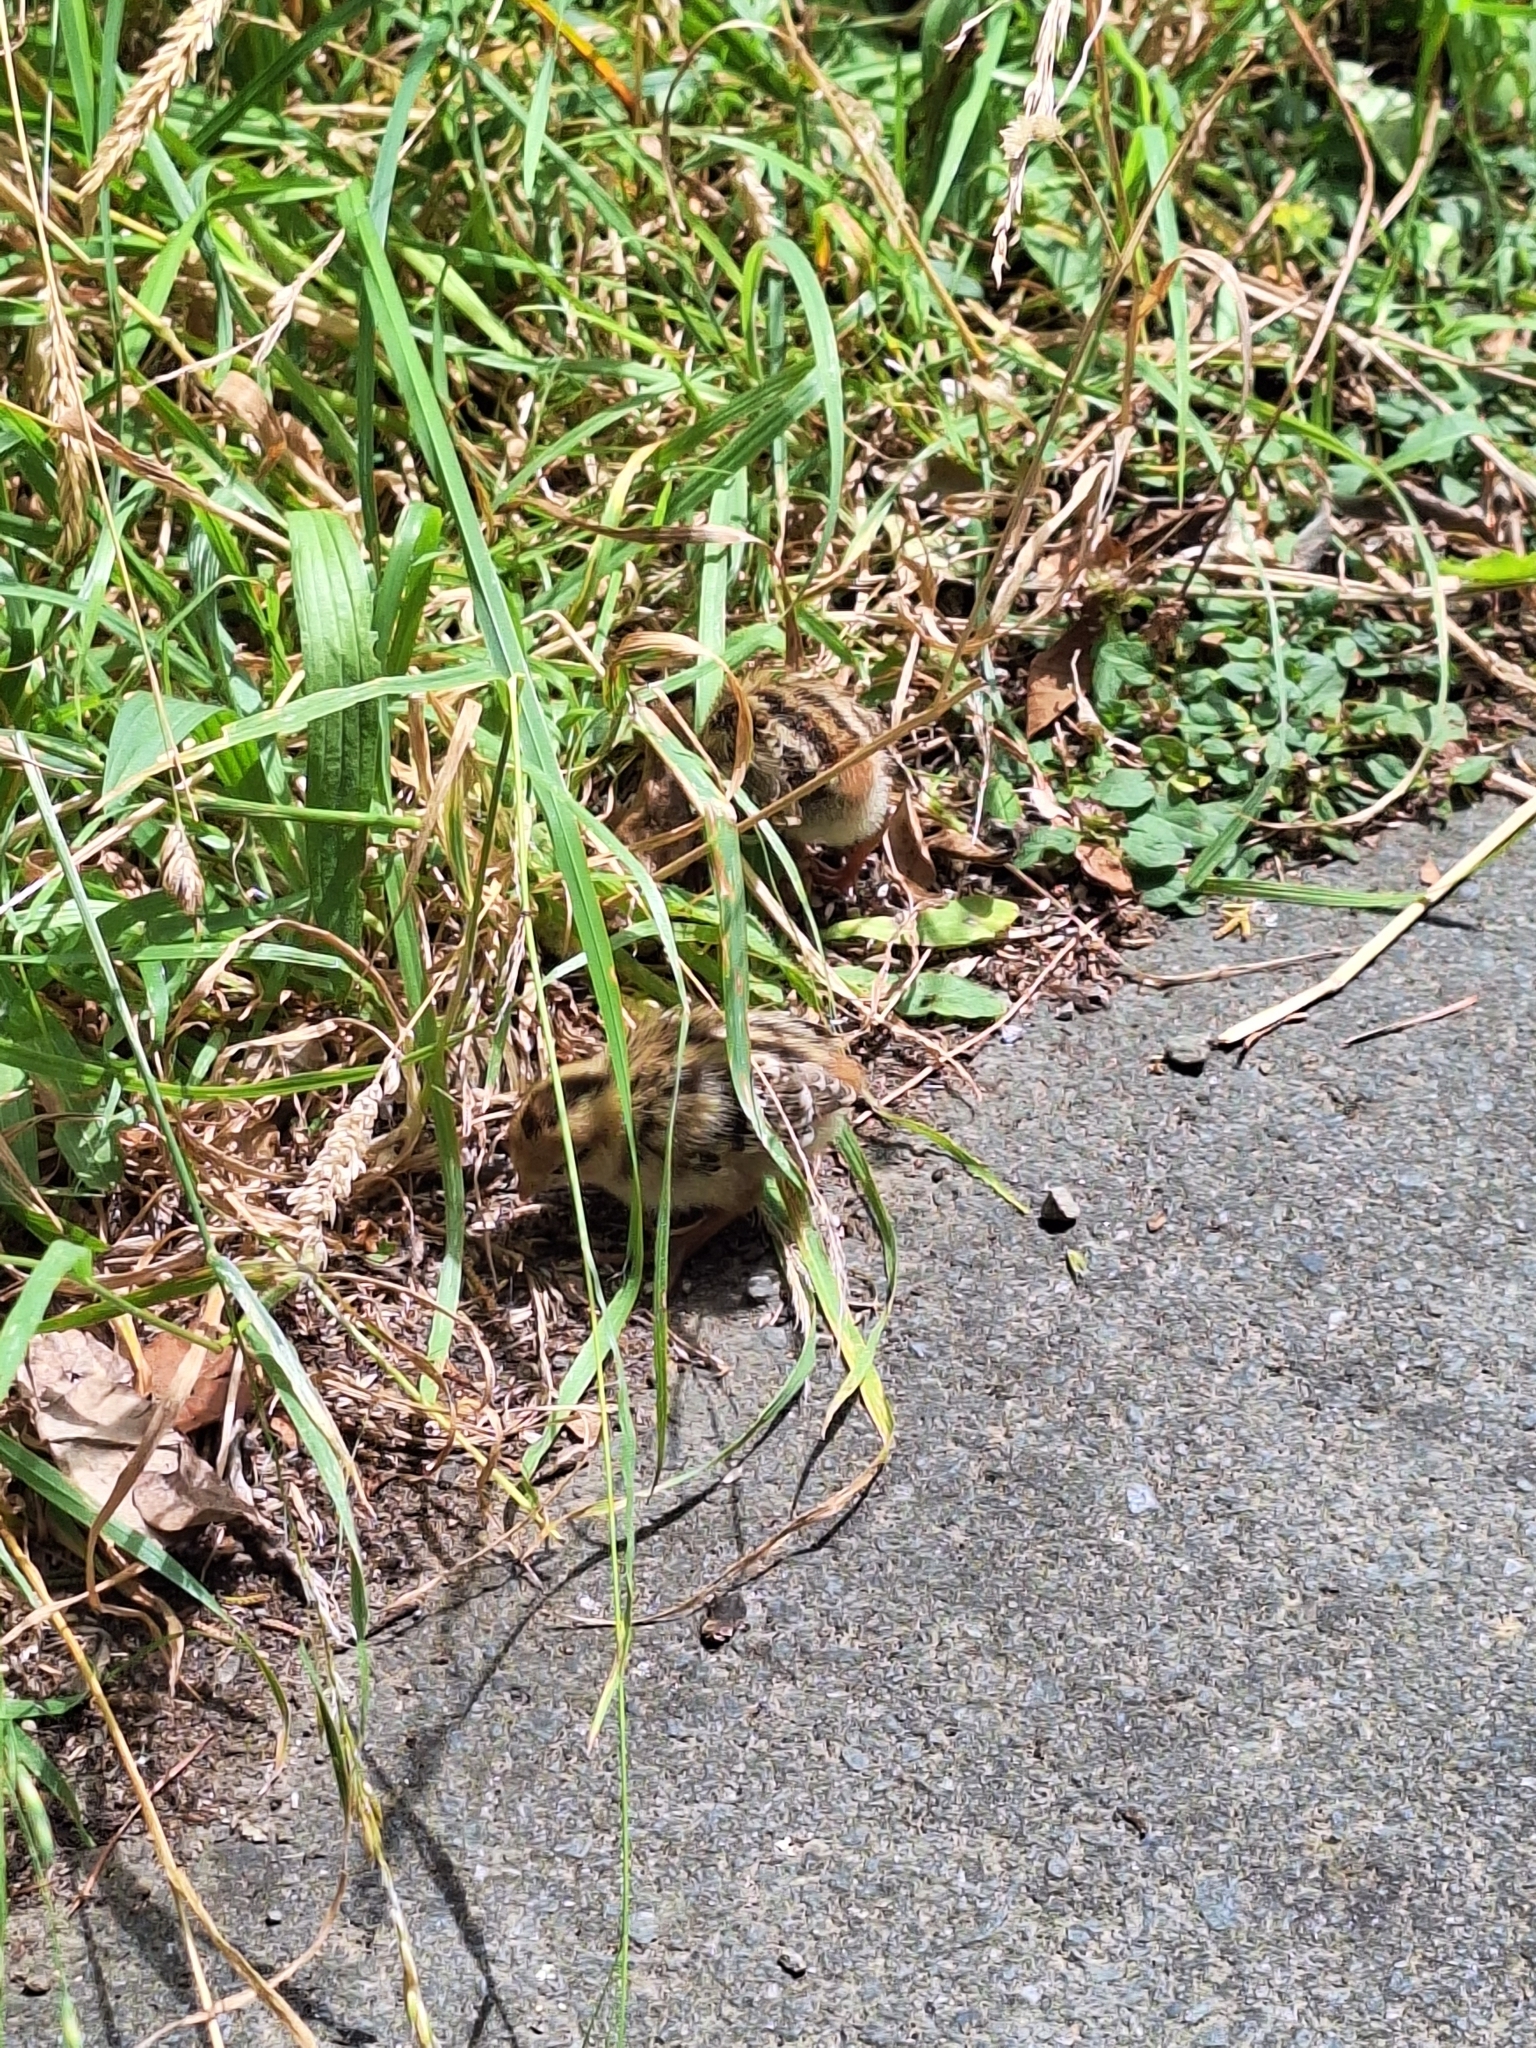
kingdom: Animalia
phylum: Chordata
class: Aves
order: Galliformes
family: Odontophoridae
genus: Callipepla
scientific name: Callipepla californica
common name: California quail
